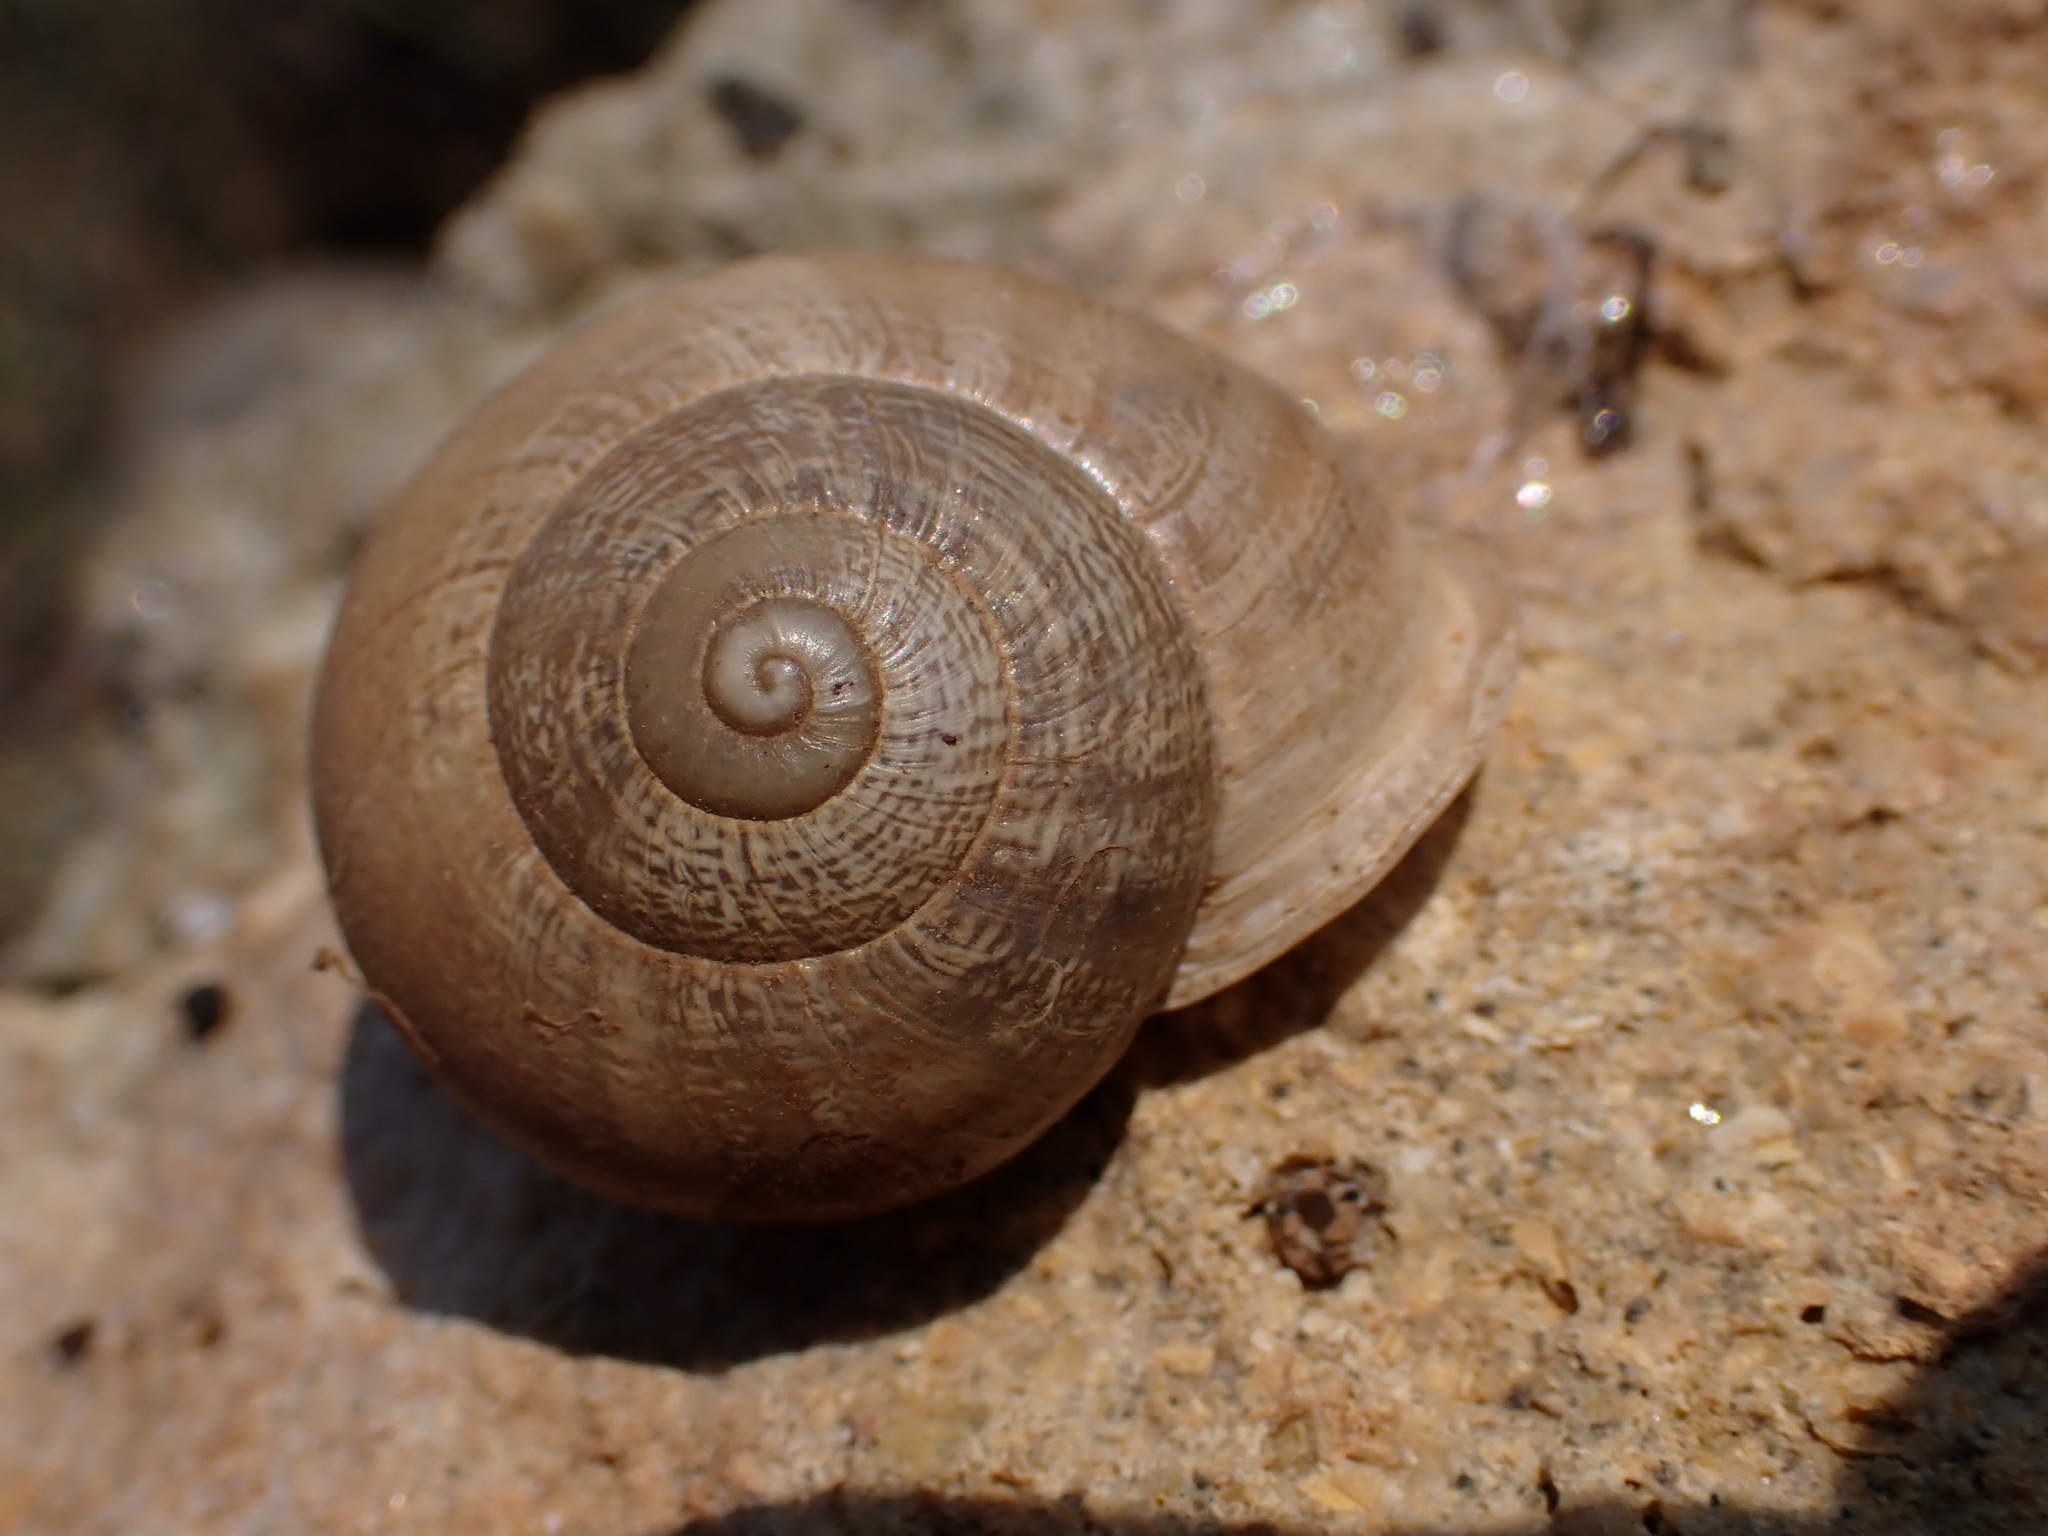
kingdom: Animalia
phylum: Mollusca
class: Gastropoda
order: Stylommatophora
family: Helicidae
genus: Eobania
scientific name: Eobania vermiculata
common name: Chocolateband snail
